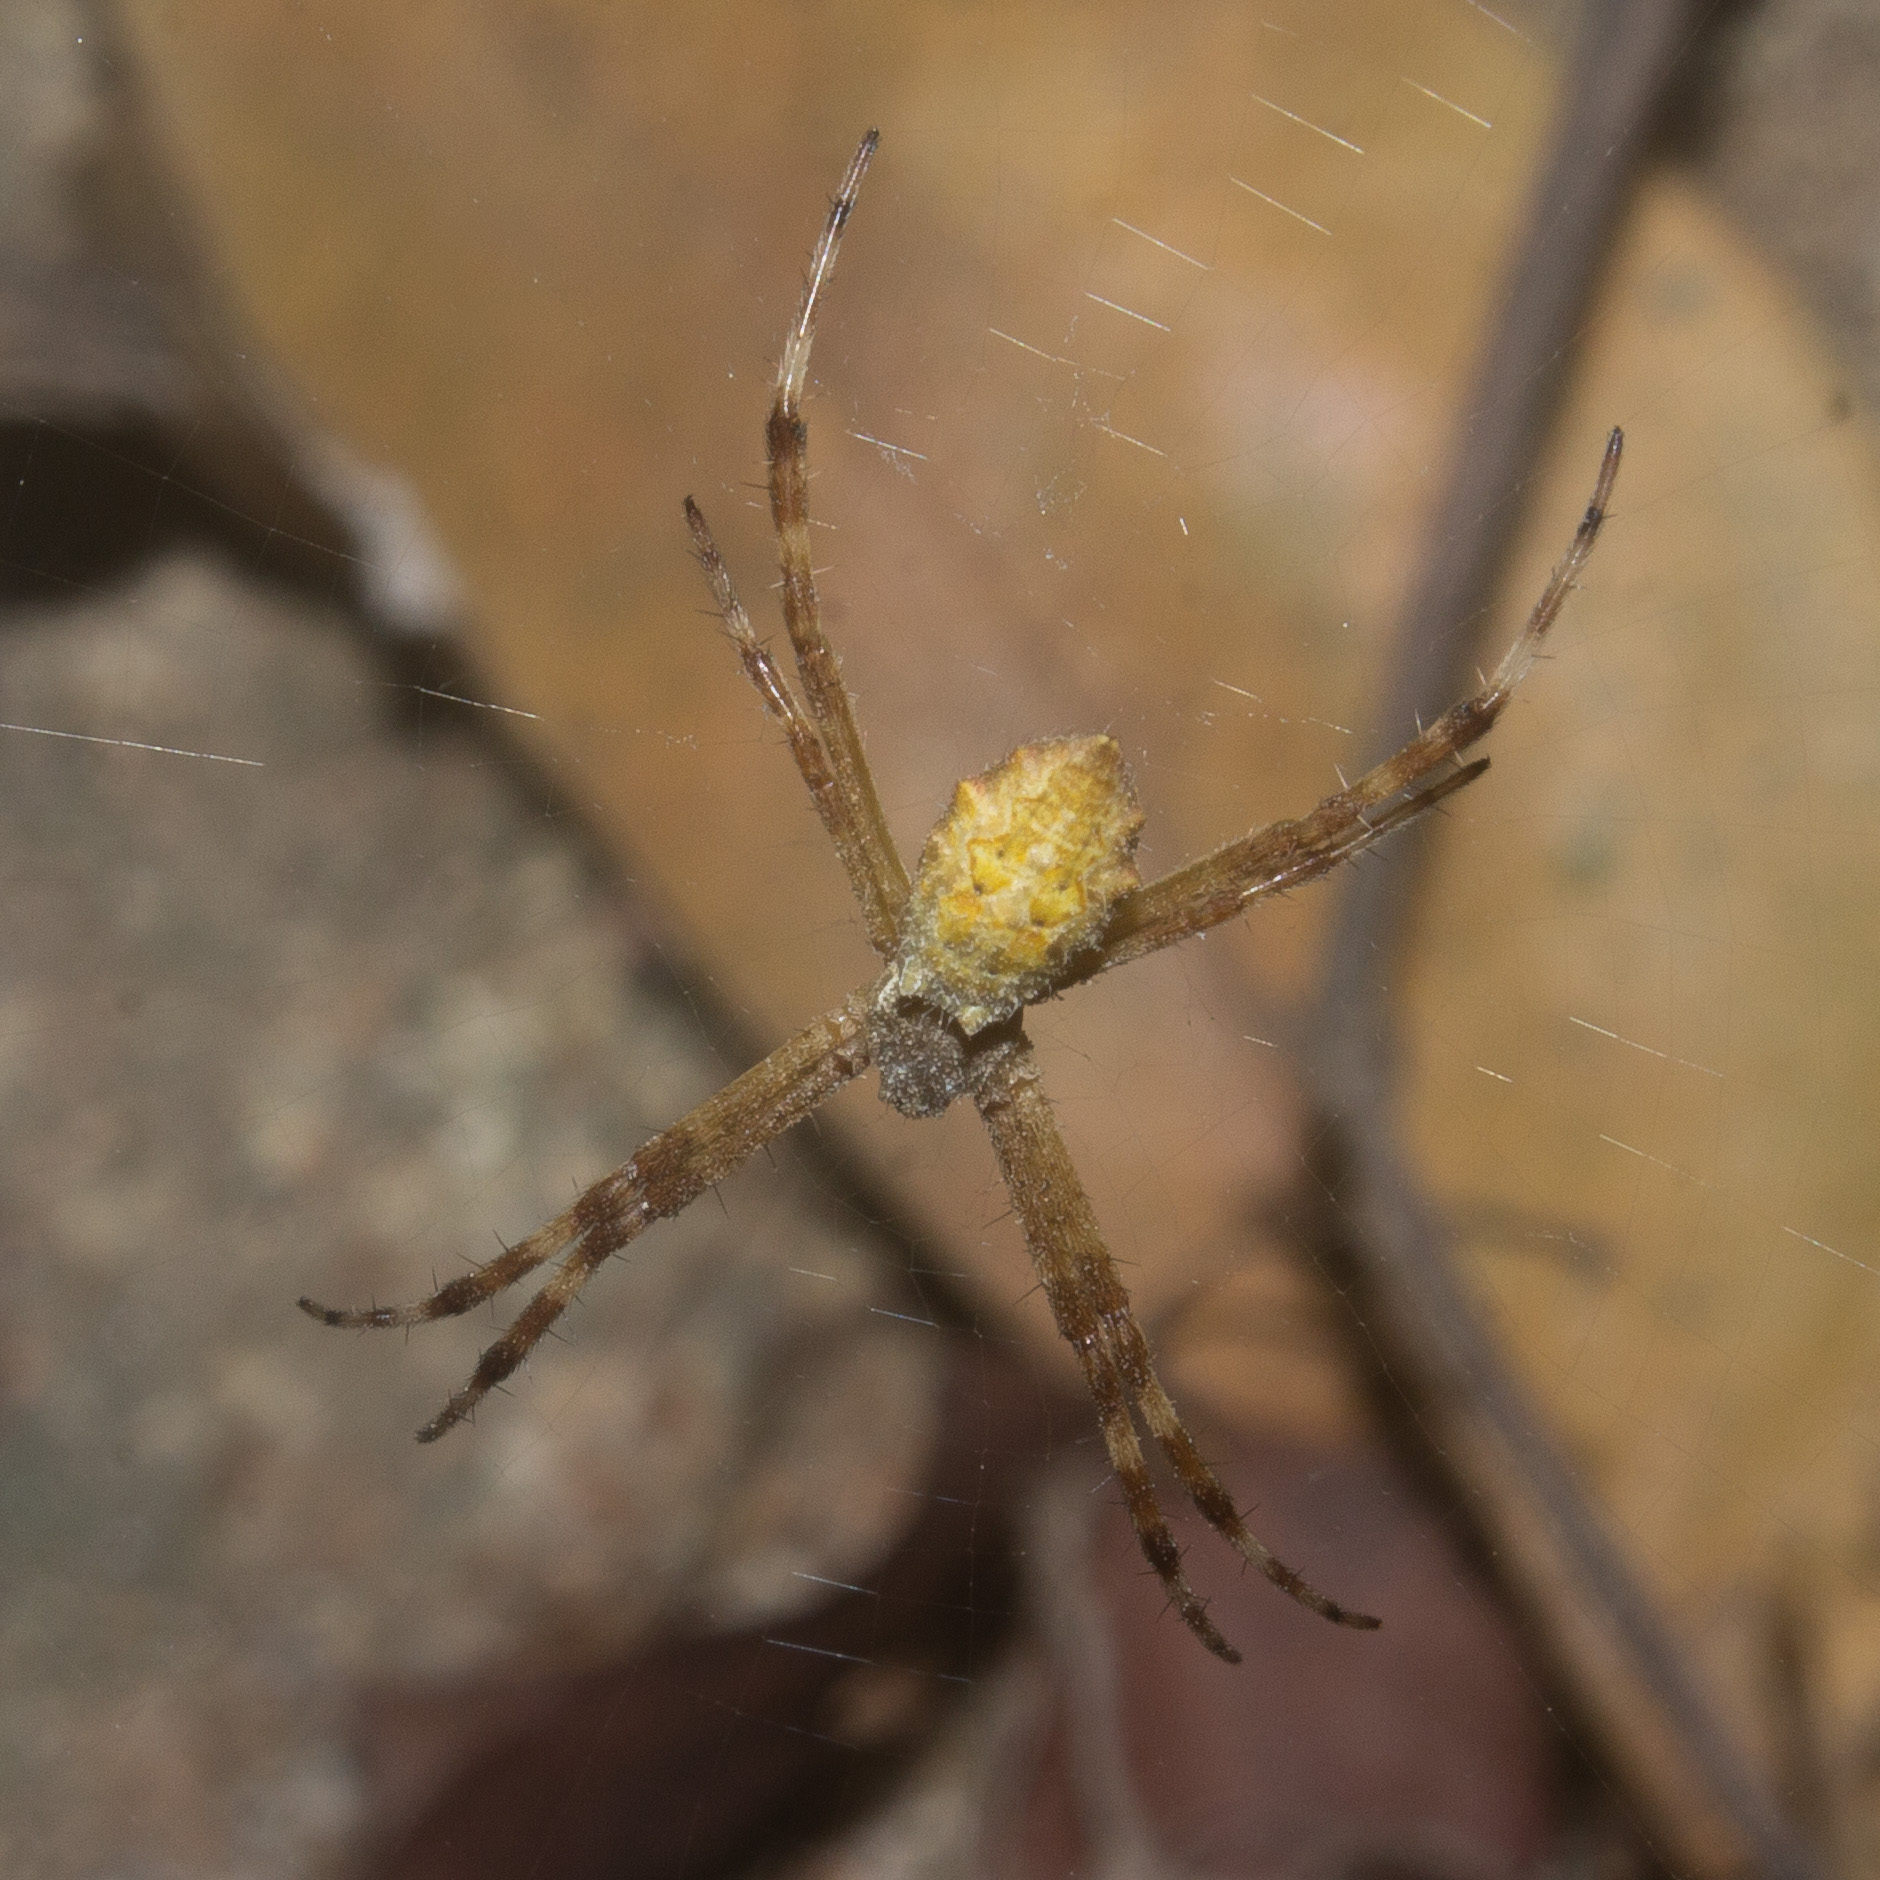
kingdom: Animalia
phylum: Arthropoda
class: Arachnida
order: Araneae
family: Araneidae
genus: Argiope
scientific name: Argiope argentata
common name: Orb weavers
